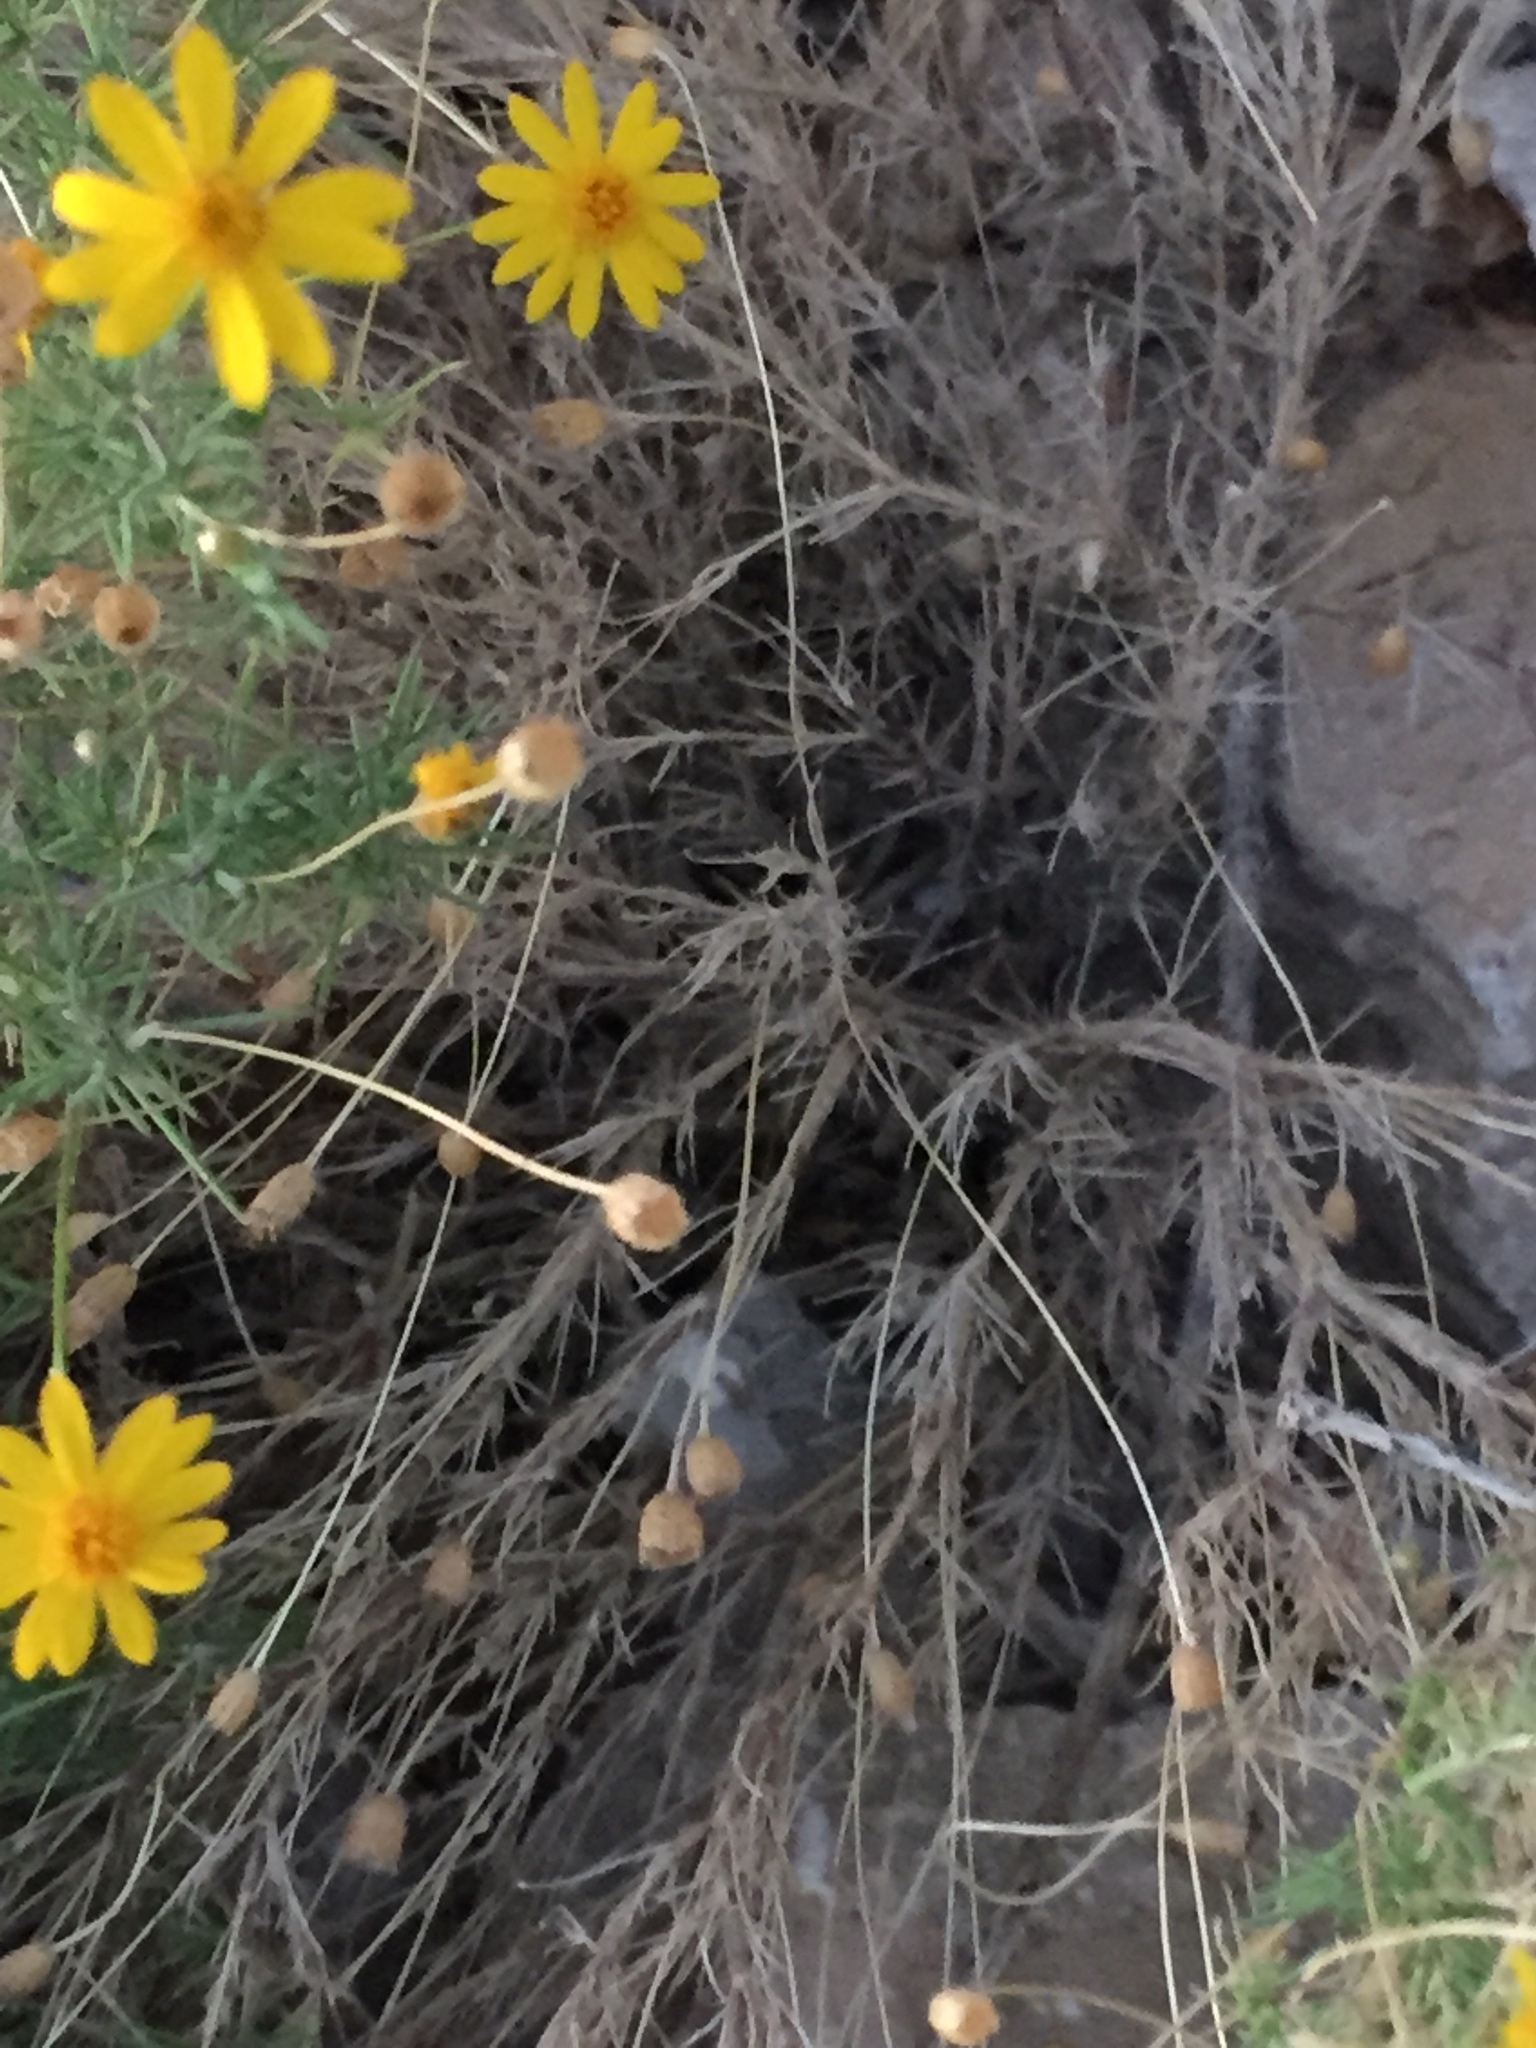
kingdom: Plantae
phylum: Tracheophyta
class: Magnoliopsida
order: Asterales
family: Asteraceae
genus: Thymophylla
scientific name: Thymophylla pentachaeta
